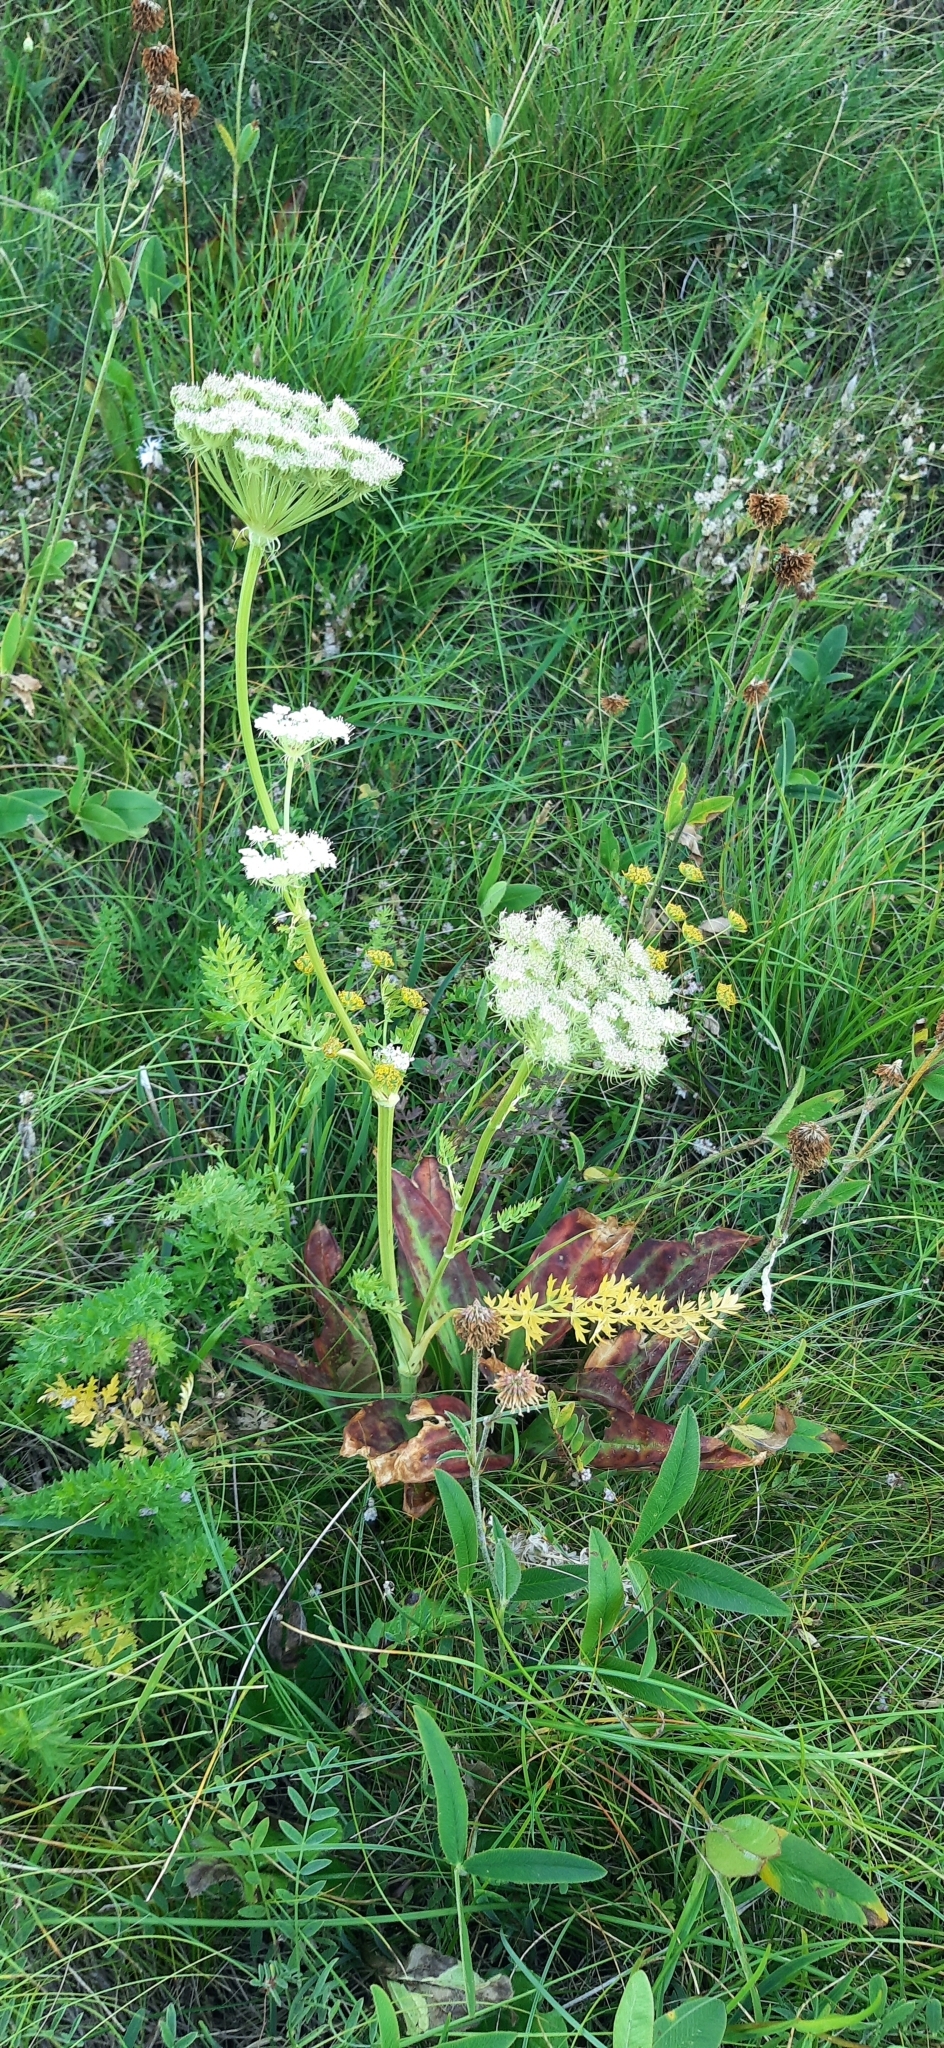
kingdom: Plantae
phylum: Tracheophyta
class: Magnoliopsida
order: Apiales
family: Apiaceae
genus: Seseli
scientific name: Seseli libanotis
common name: Mooncarrot
